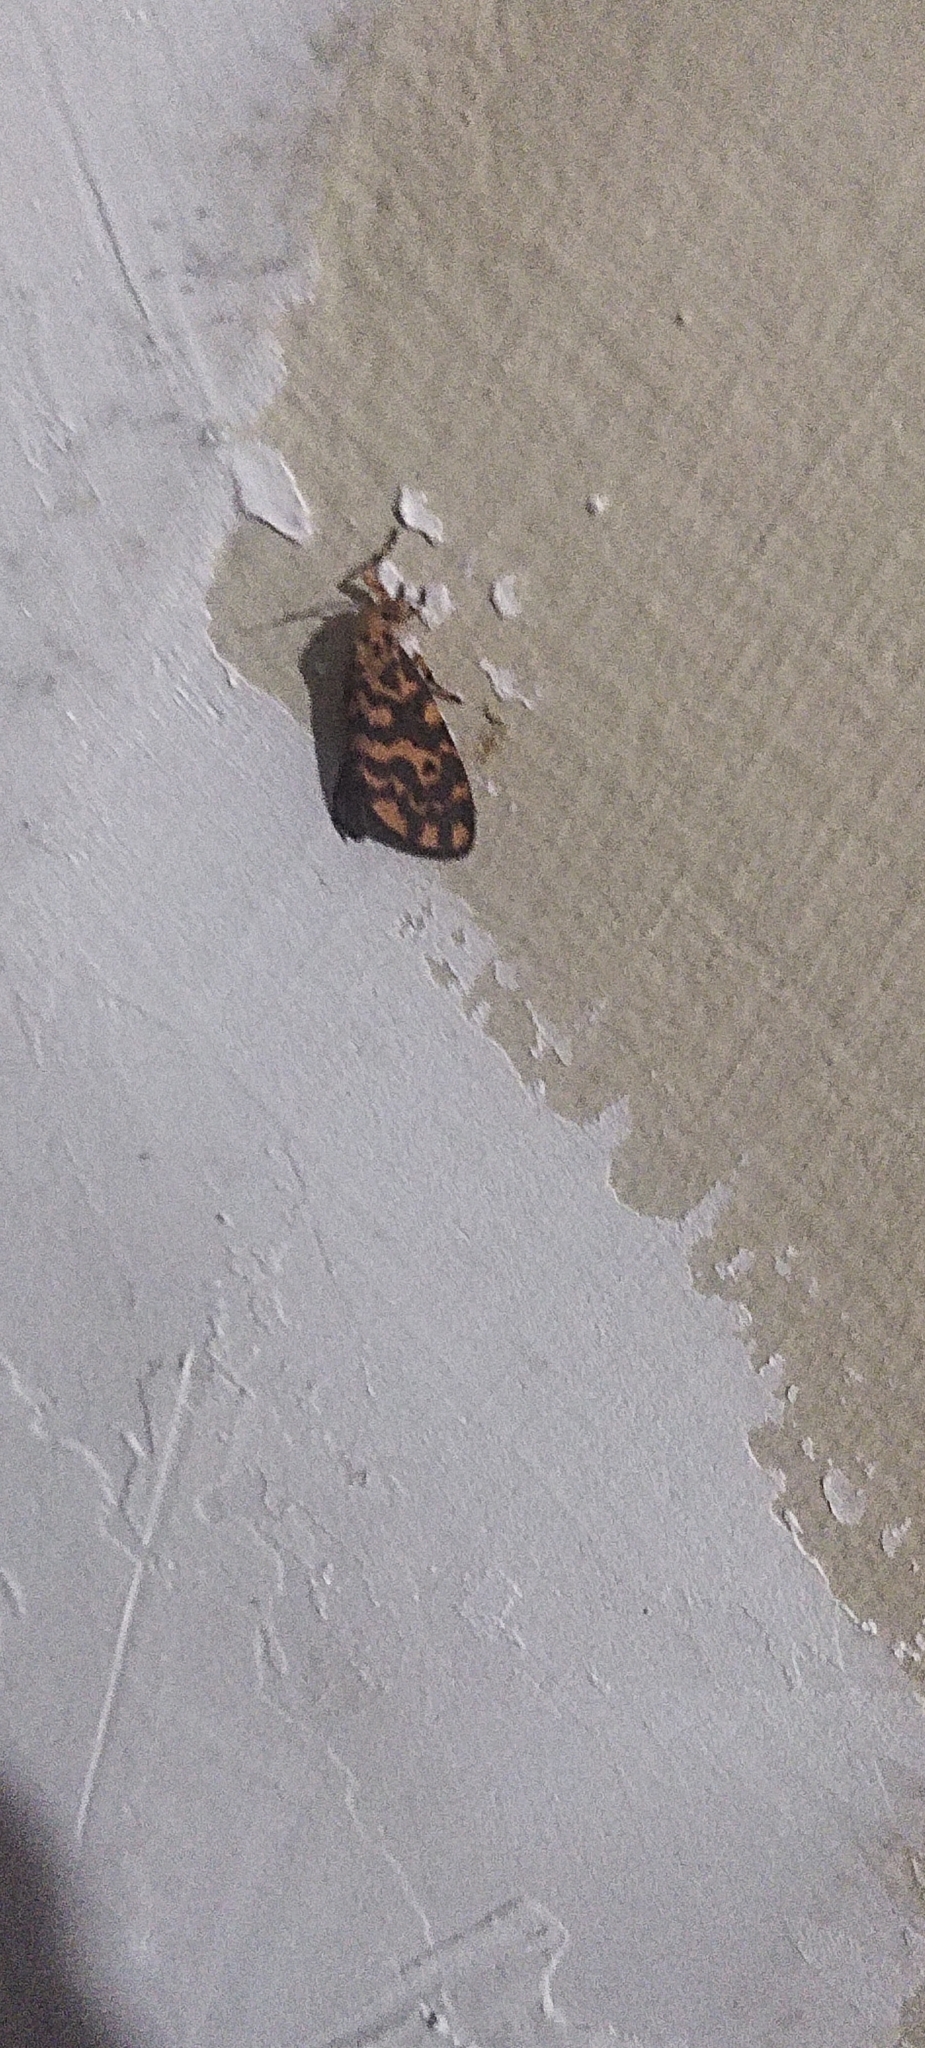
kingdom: Animalia
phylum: Arthropoda
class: Insecta
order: Lepidoptera
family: Erebidae
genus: Nepita
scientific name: Nepita conferta
